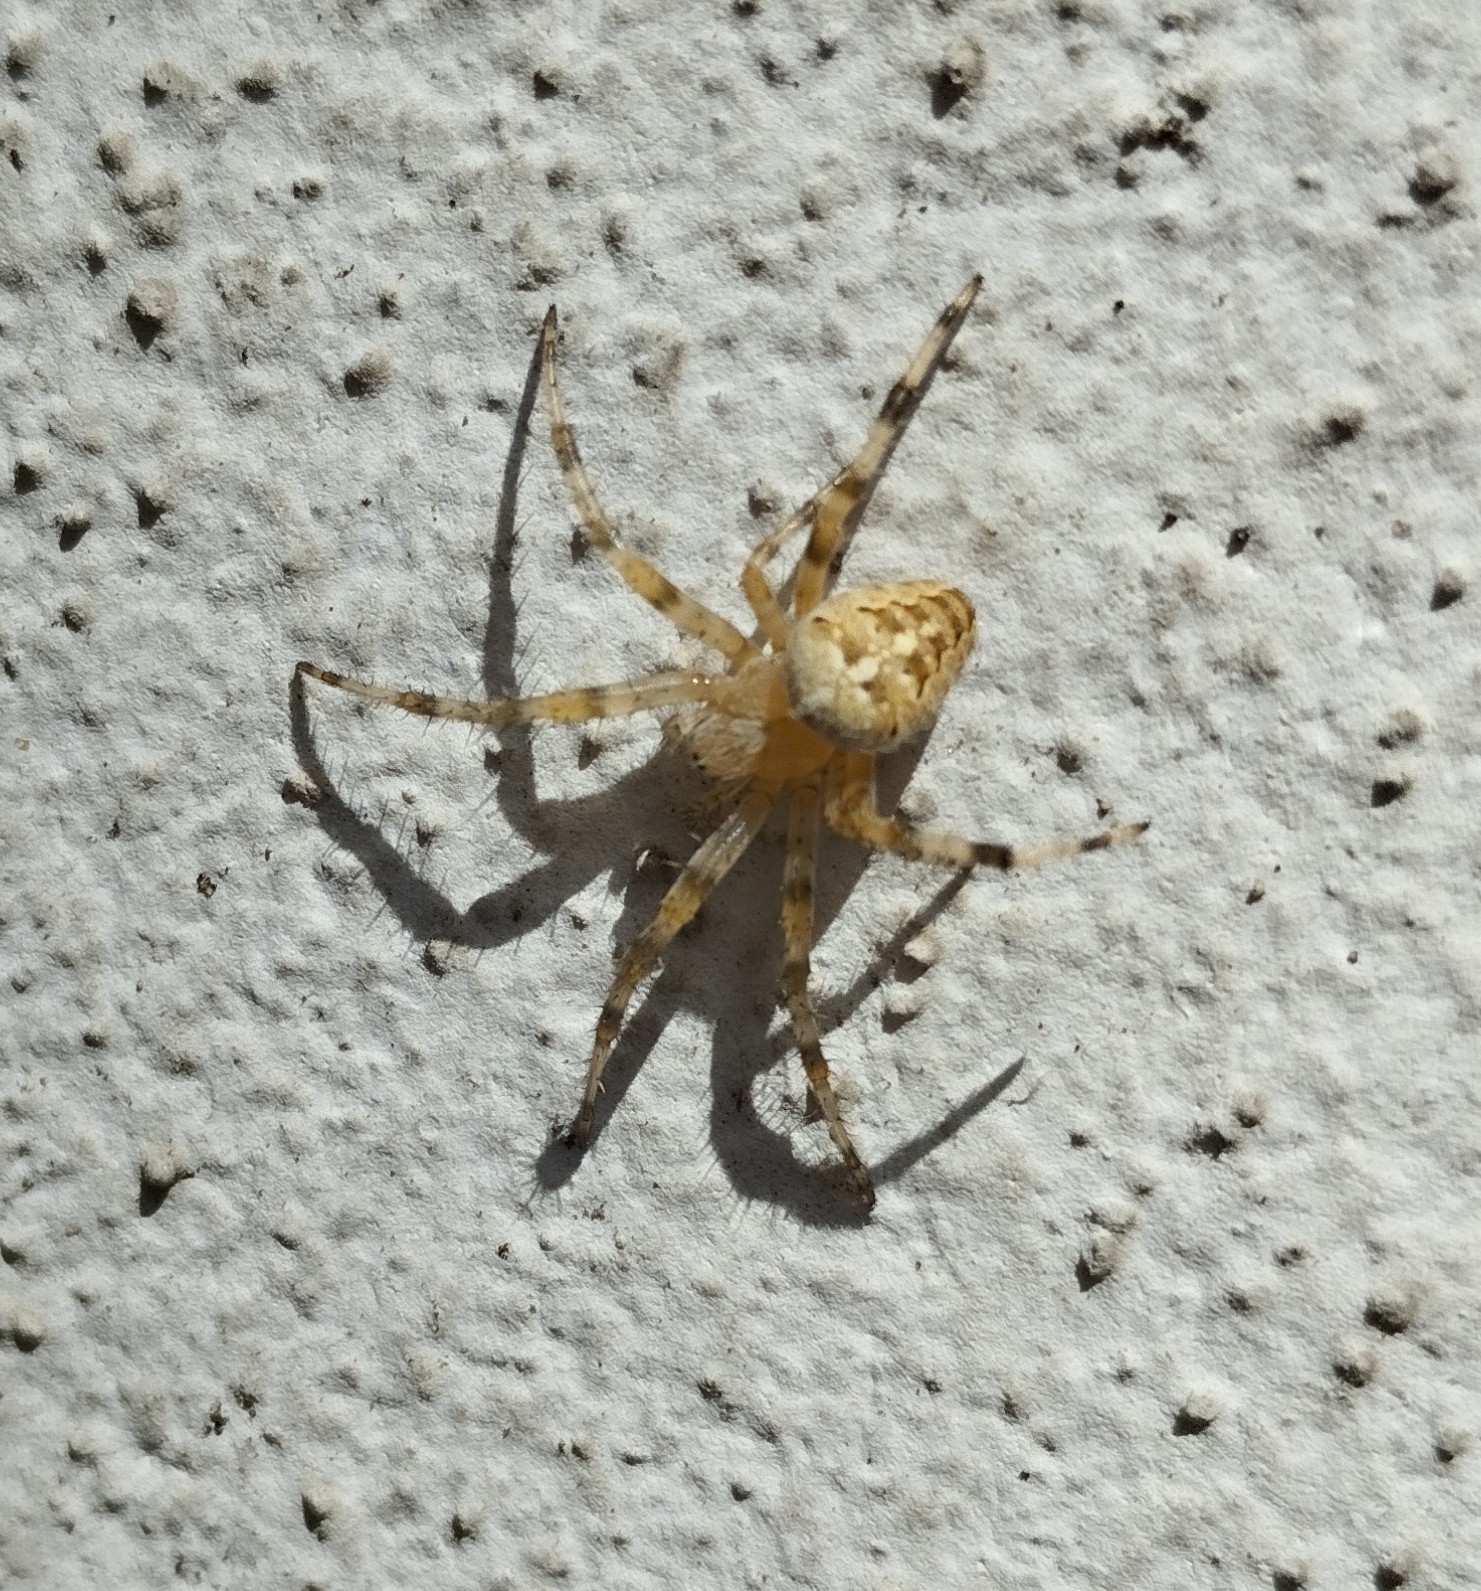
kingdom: Animalia
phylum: Arthropoda
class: Arachnida
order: Araneae
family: Araneidae
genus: Araneus
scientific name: Araneus diadematus
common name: Cross orbweaver
